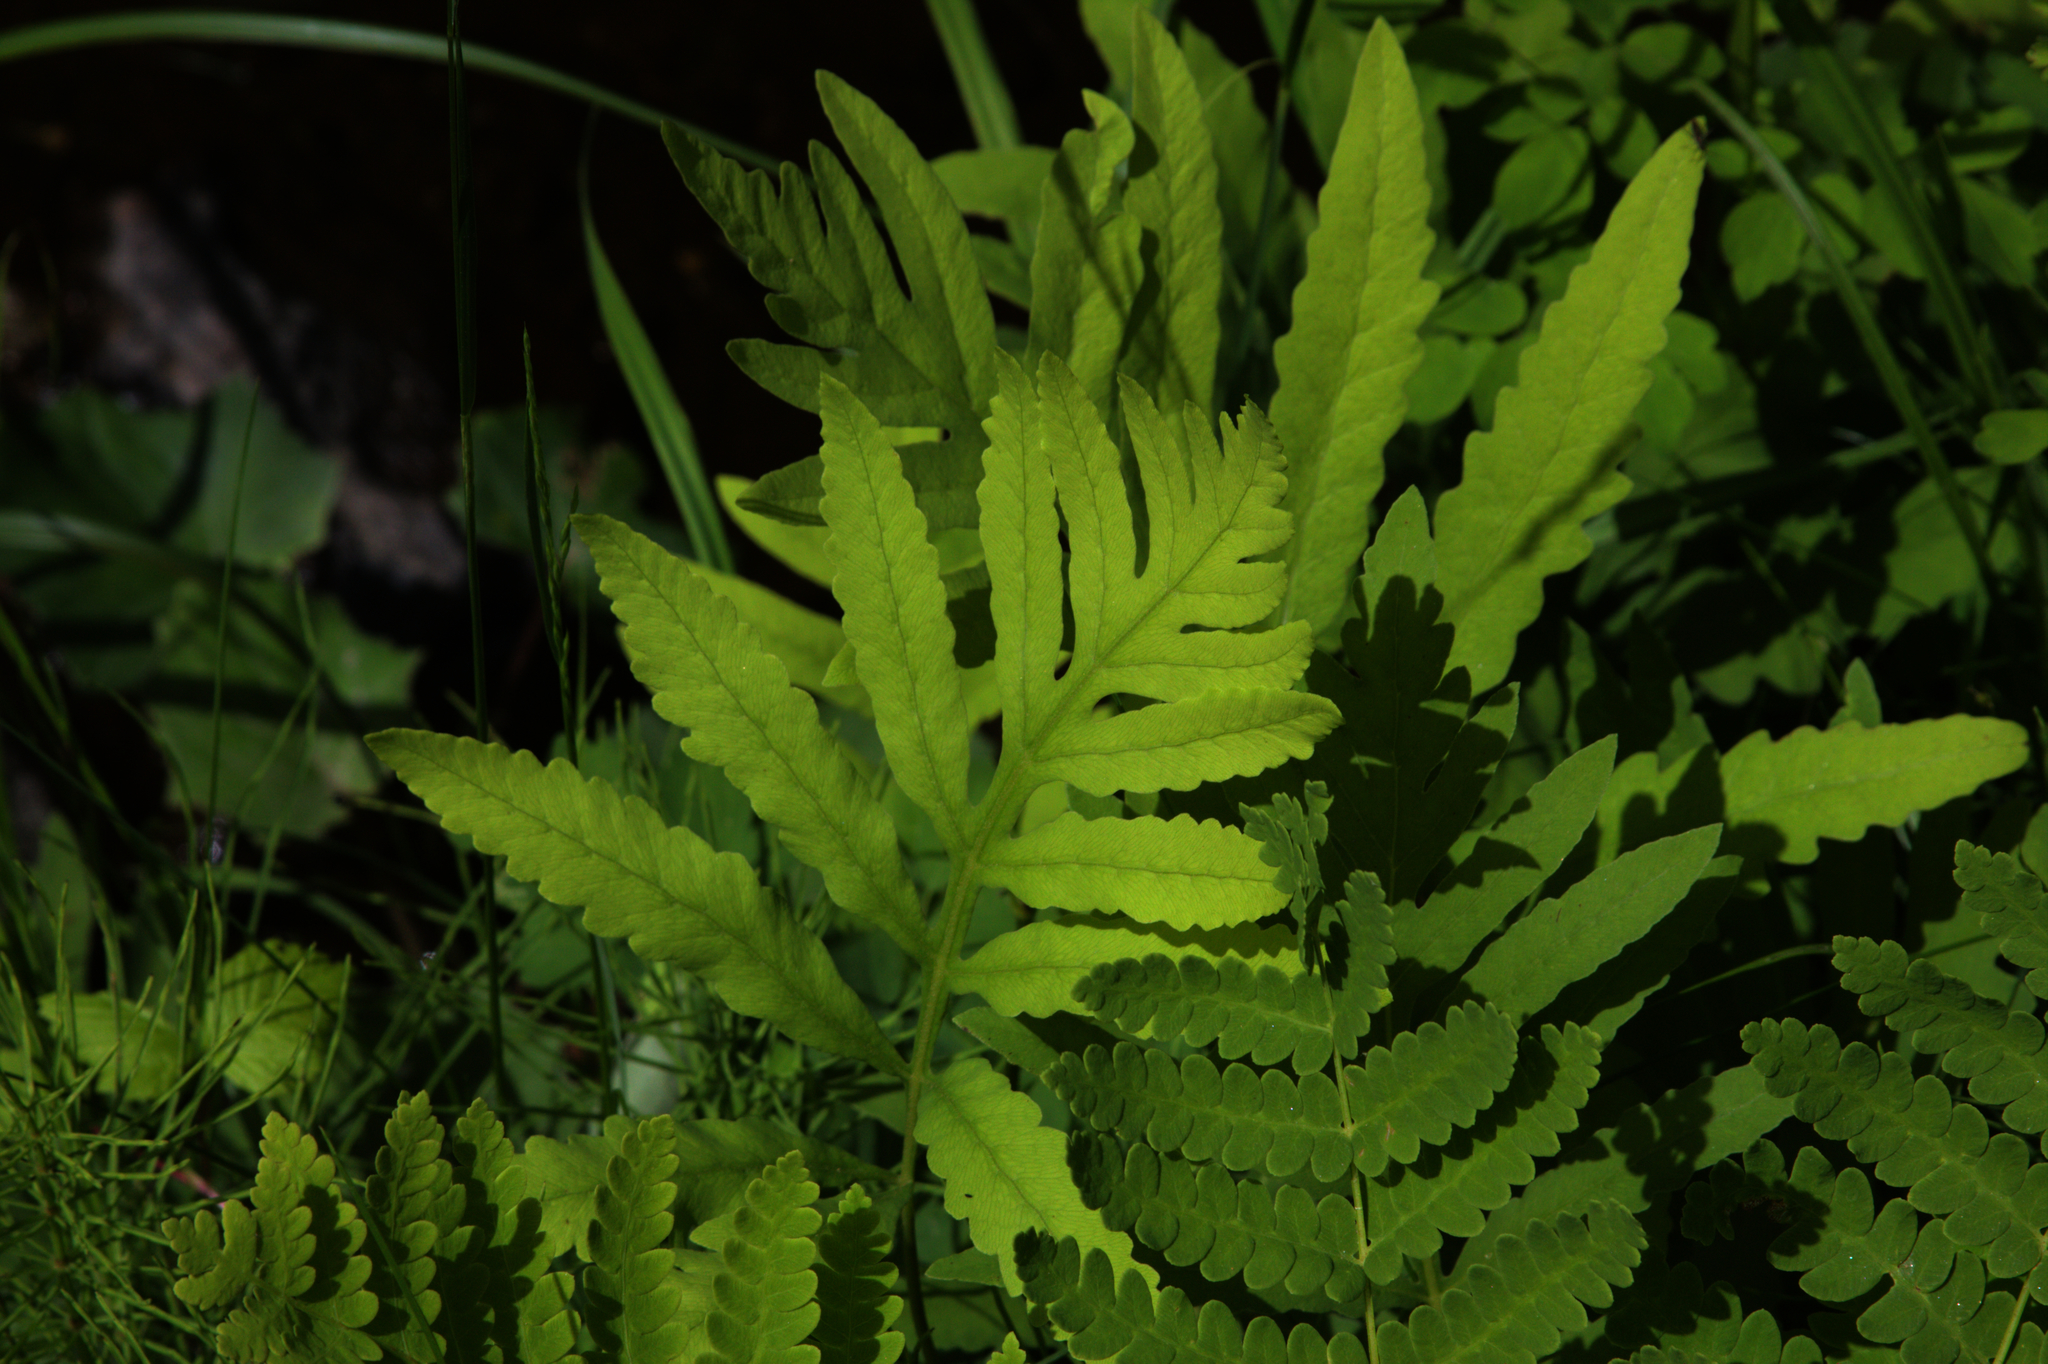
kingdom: Plantae
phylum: Tracheophyta
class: Polypodiopsida
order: Polypodiales
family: Onocleaceae
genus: Onoclea
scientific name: Onoclea sensibilis
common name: Sensitive fern
